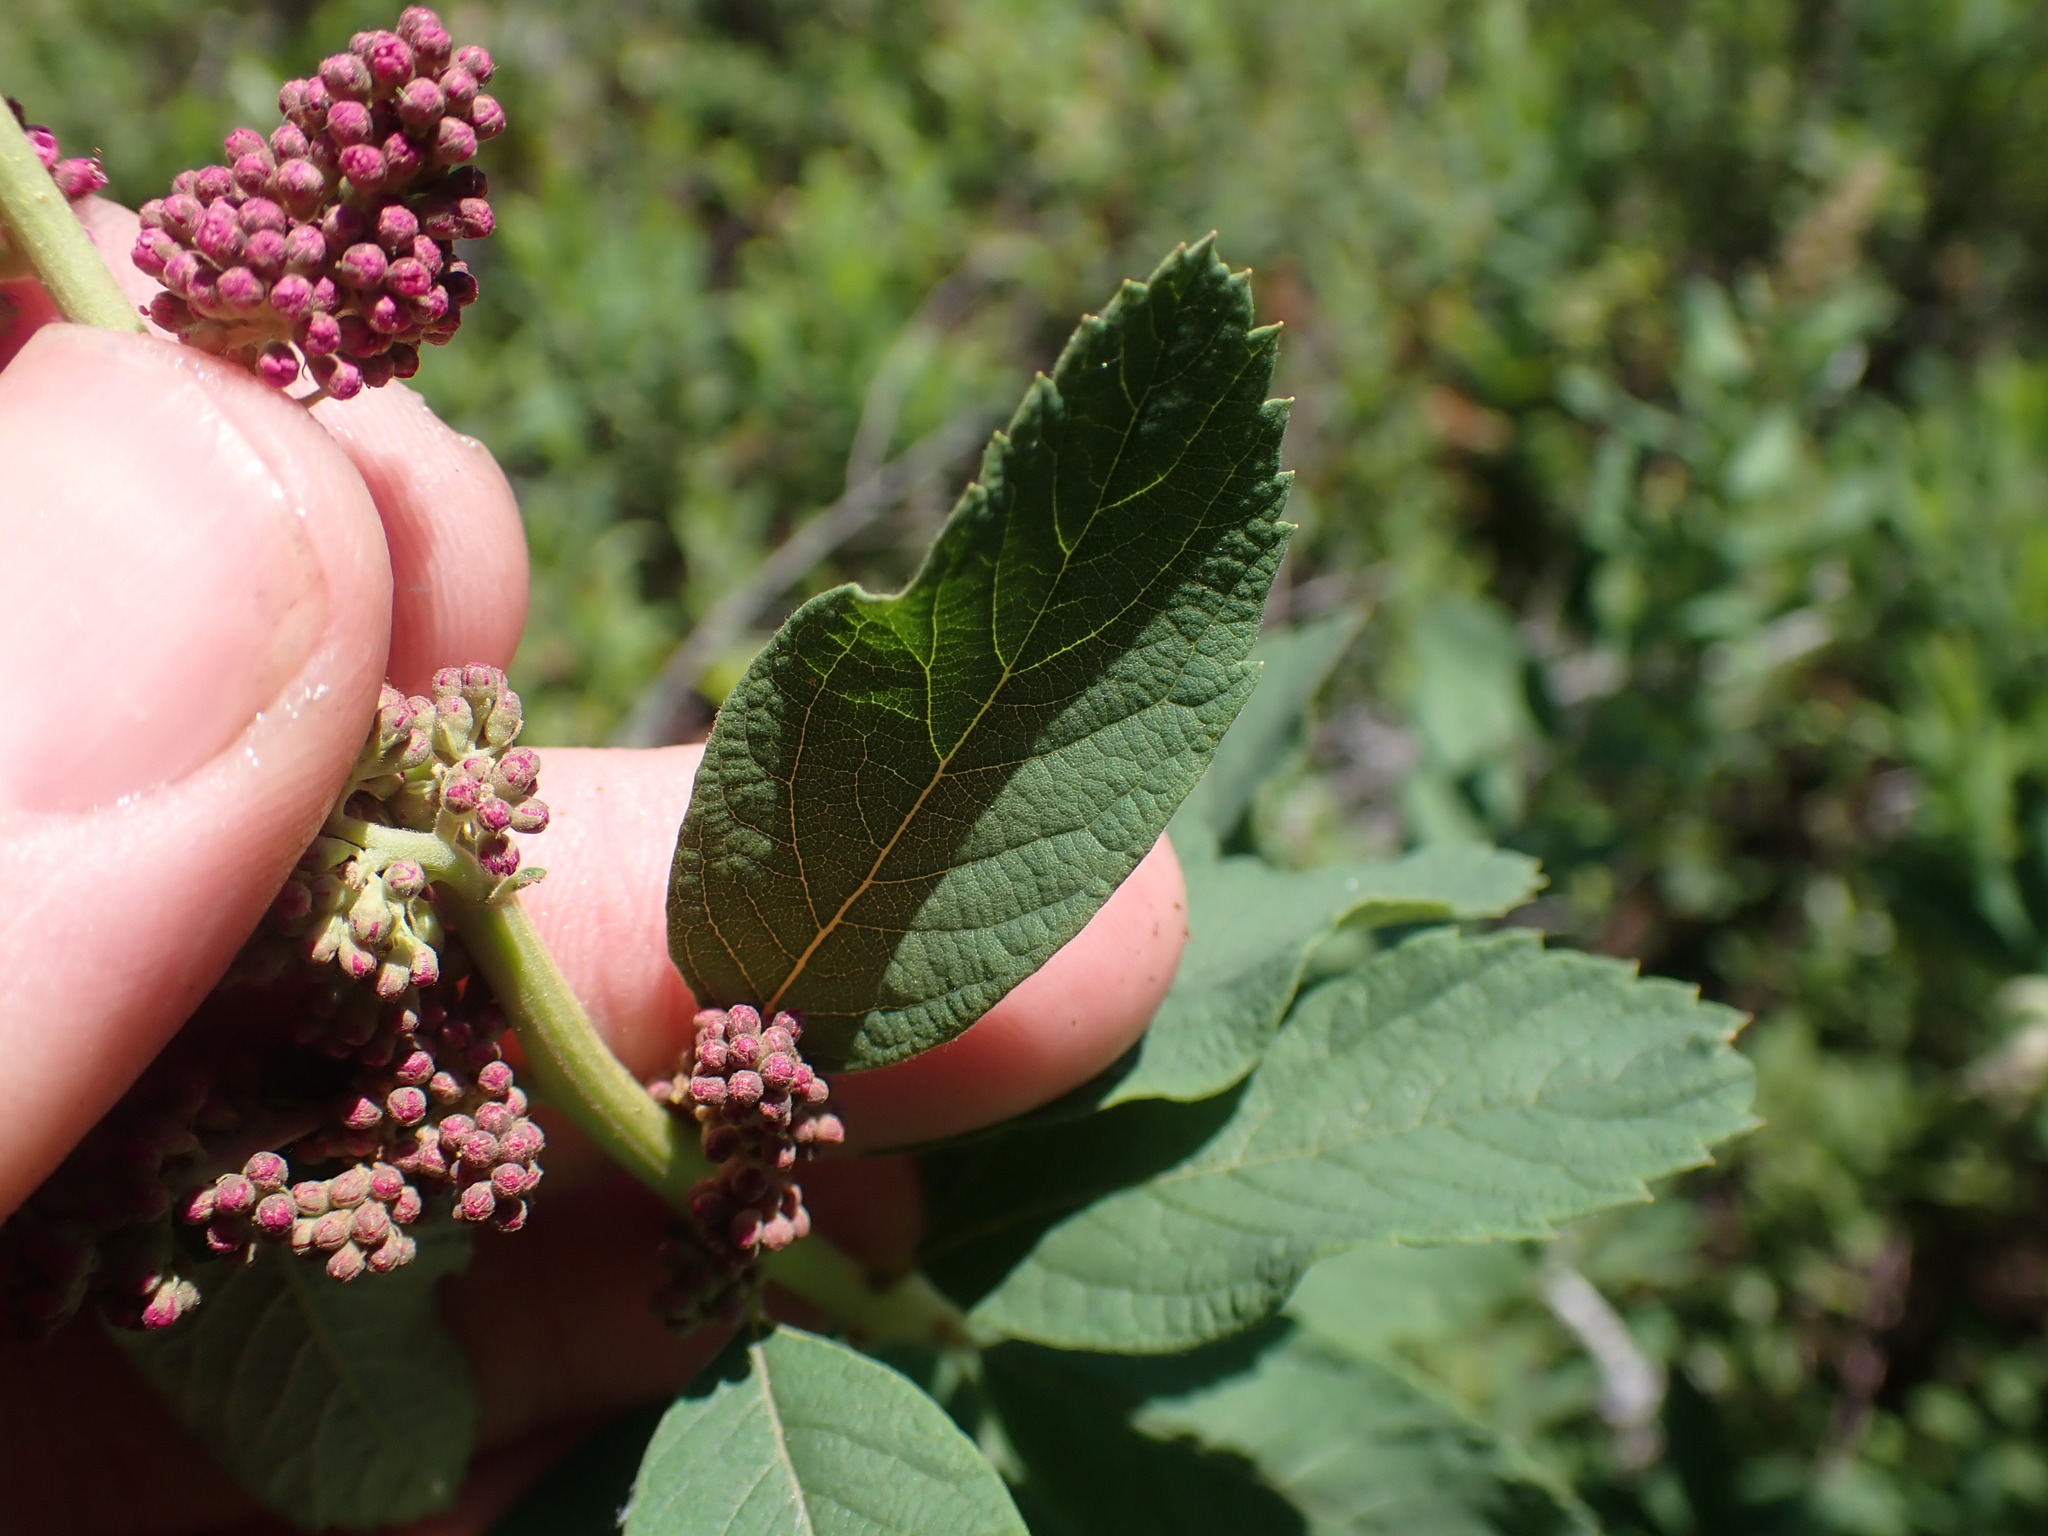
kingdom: Plantae
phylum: Tracheophyta
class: Magnoliopsida
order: Rosales
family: Rosaceae
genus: Spiraea
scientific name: Spiraea douglasii
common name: Steeplebush
